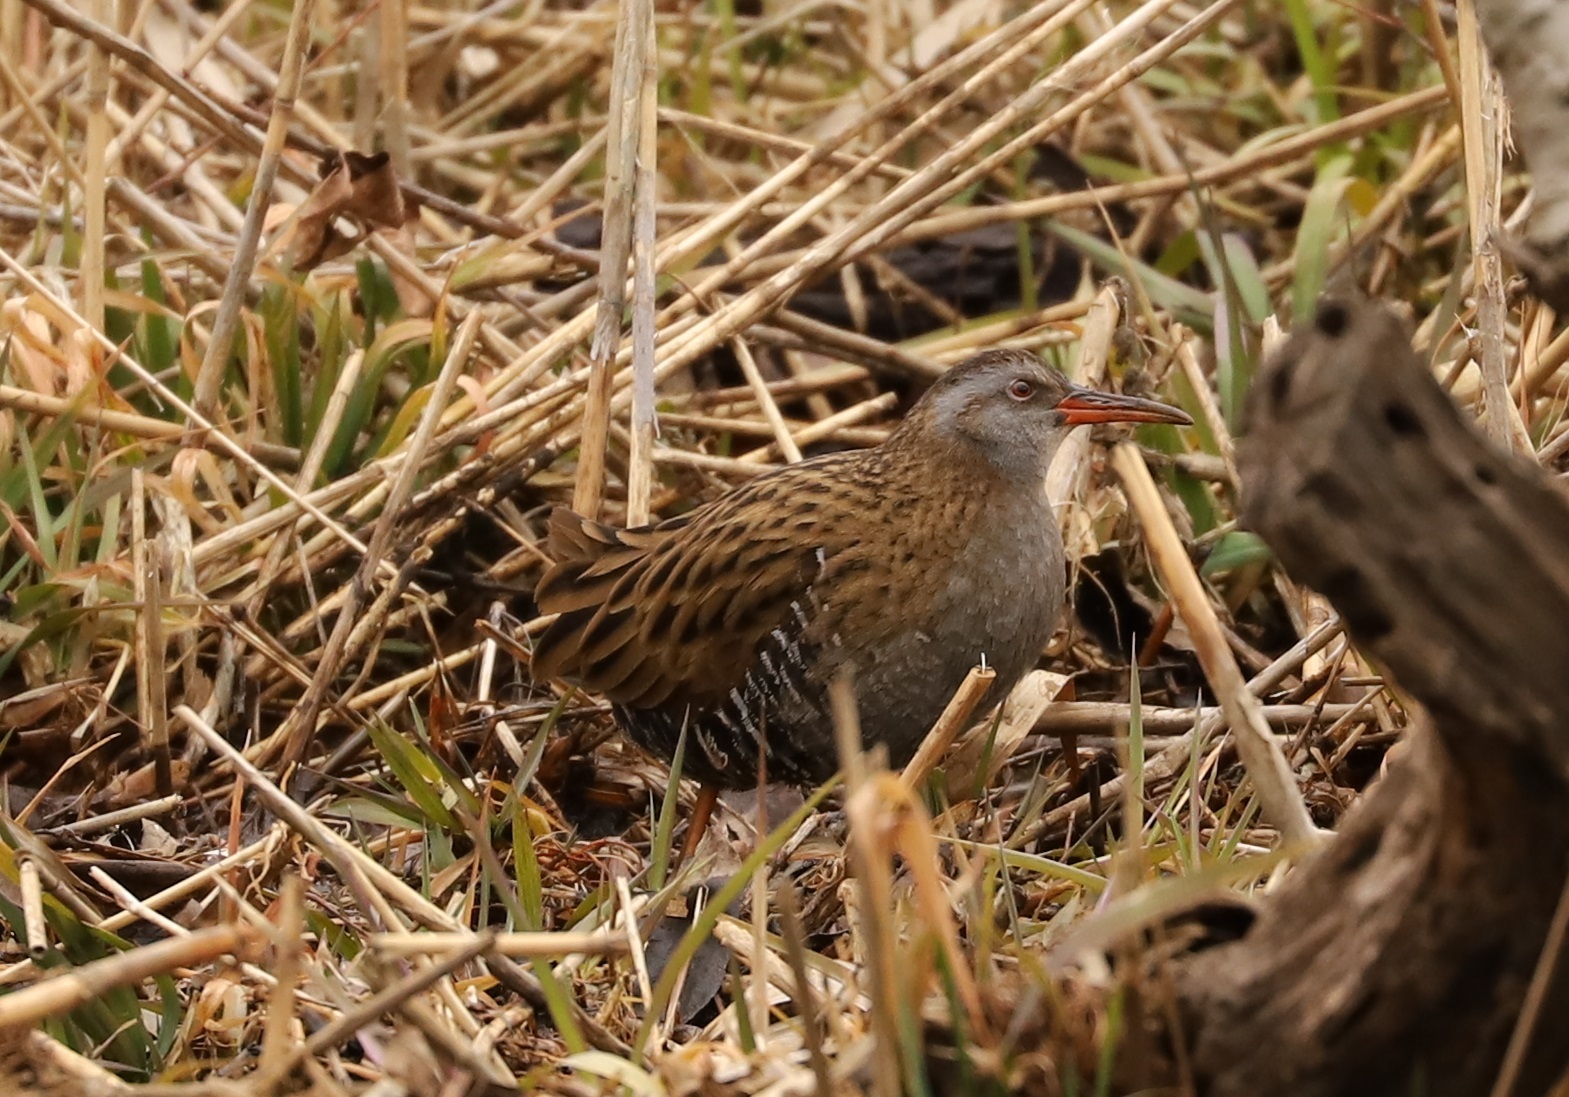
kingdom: Animalia
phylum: Chordata
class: Aves
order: Gruiformes
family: Rallidae
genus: Rallus
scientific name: Rallus indicus
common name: Brown-cheeked rail
